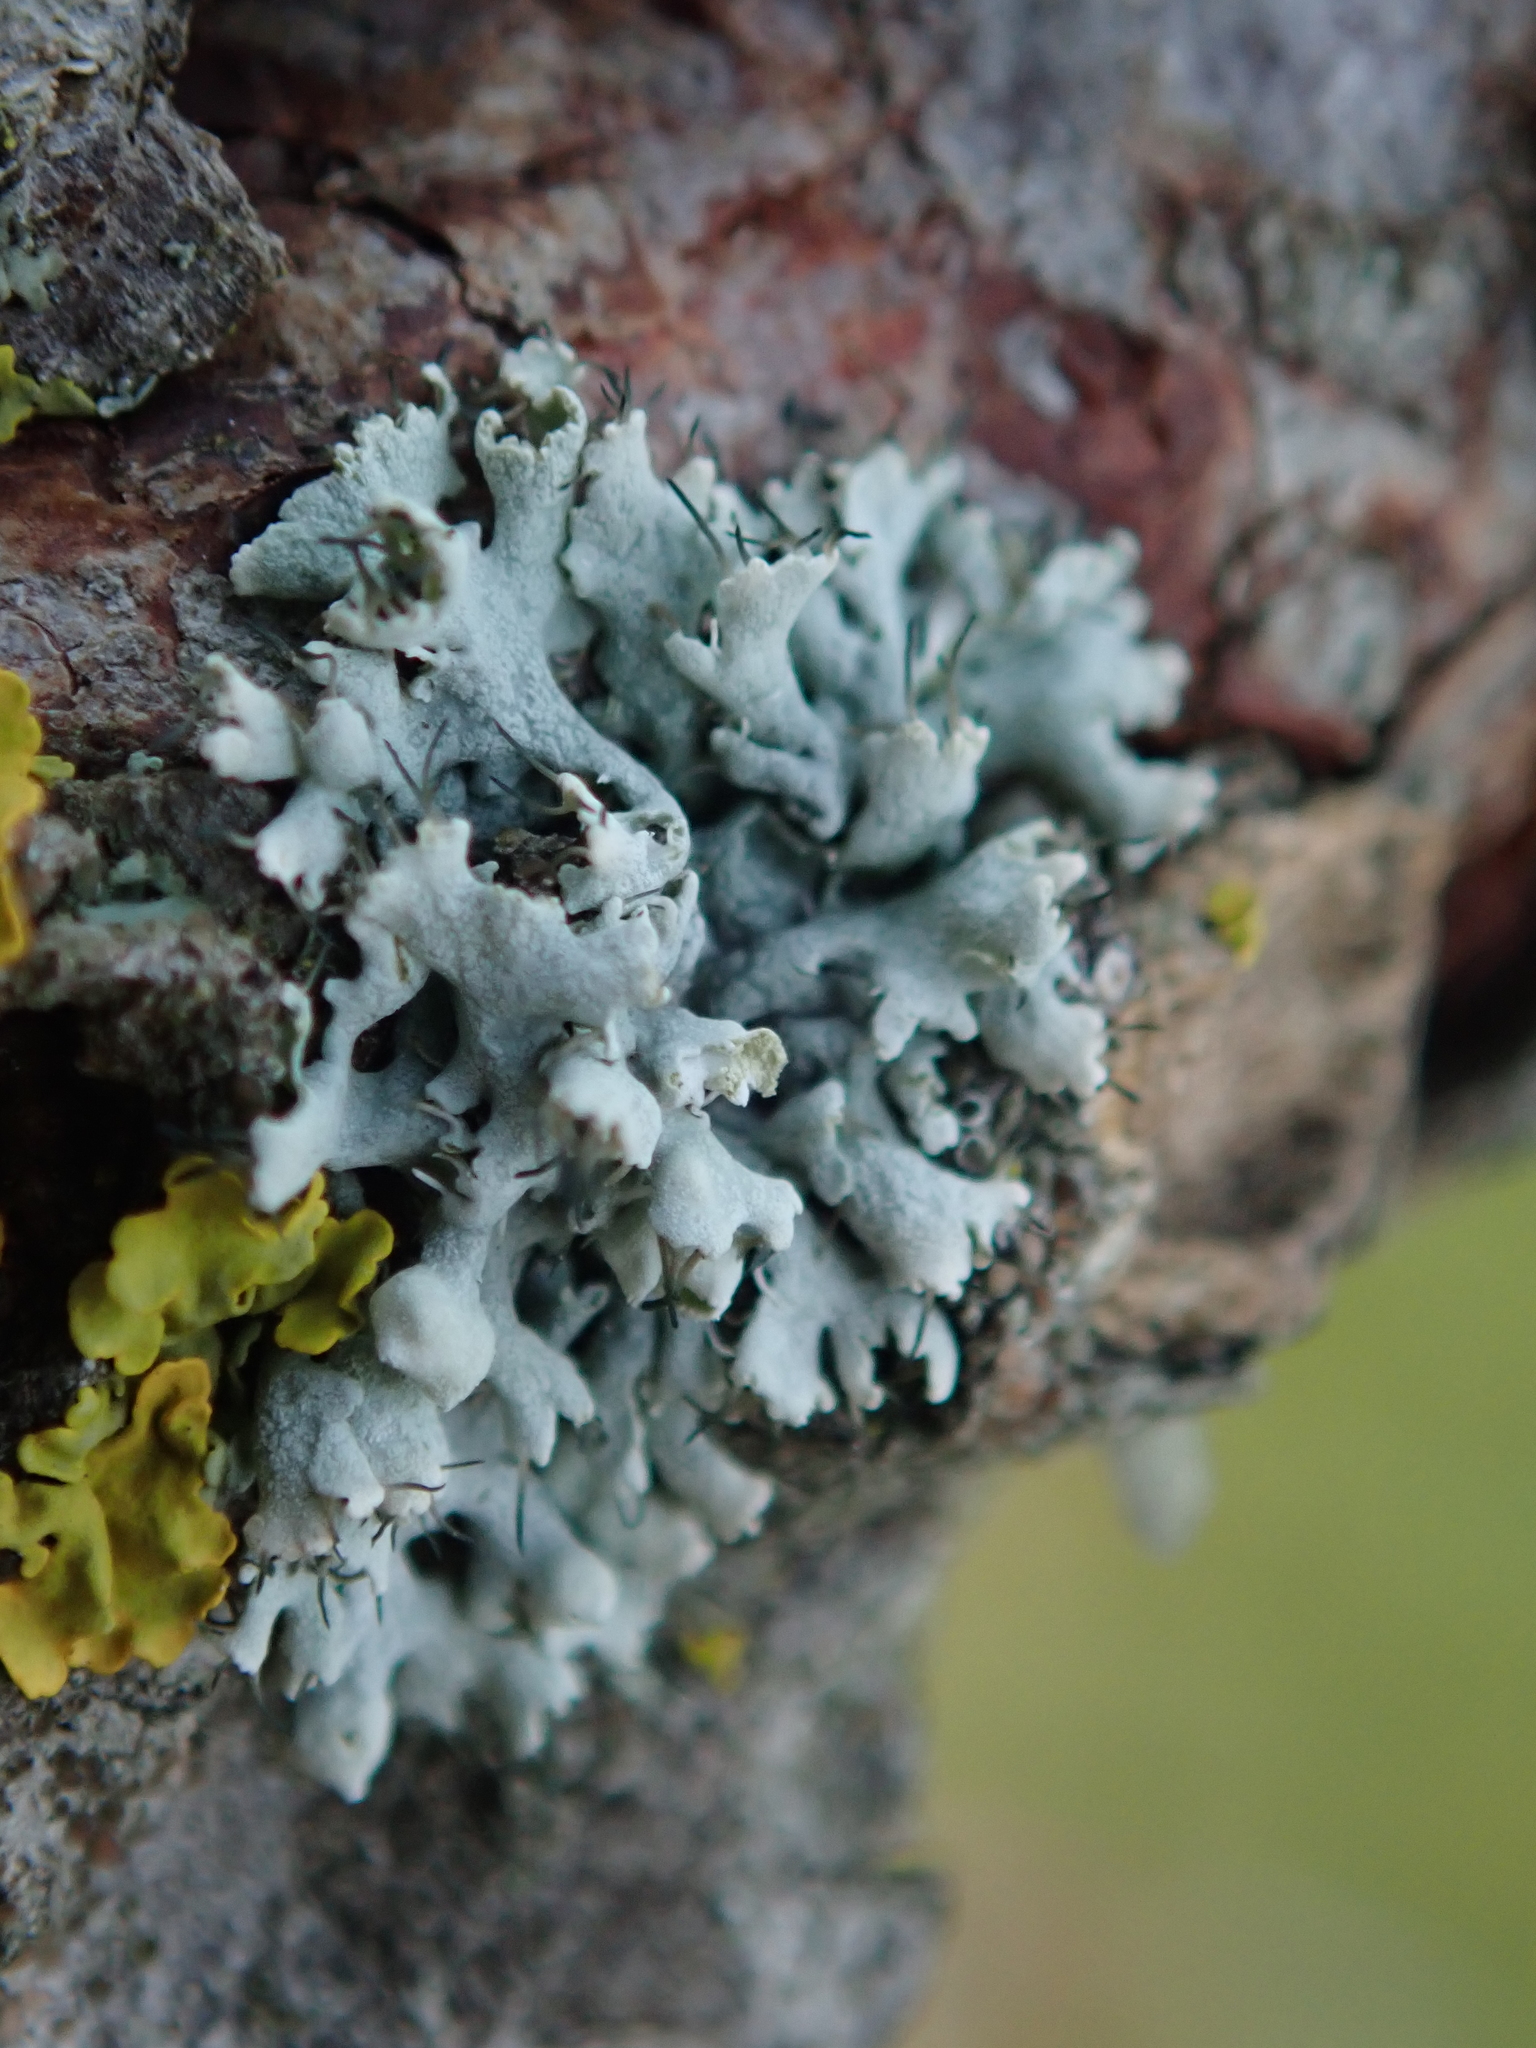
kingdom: Fungi
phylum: Ascomycota
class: Lecanoromycetes
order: Caliciales
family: Physciaceae
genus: Physcia
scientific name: Physcia adscendens
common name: Hooded rosette lichen
